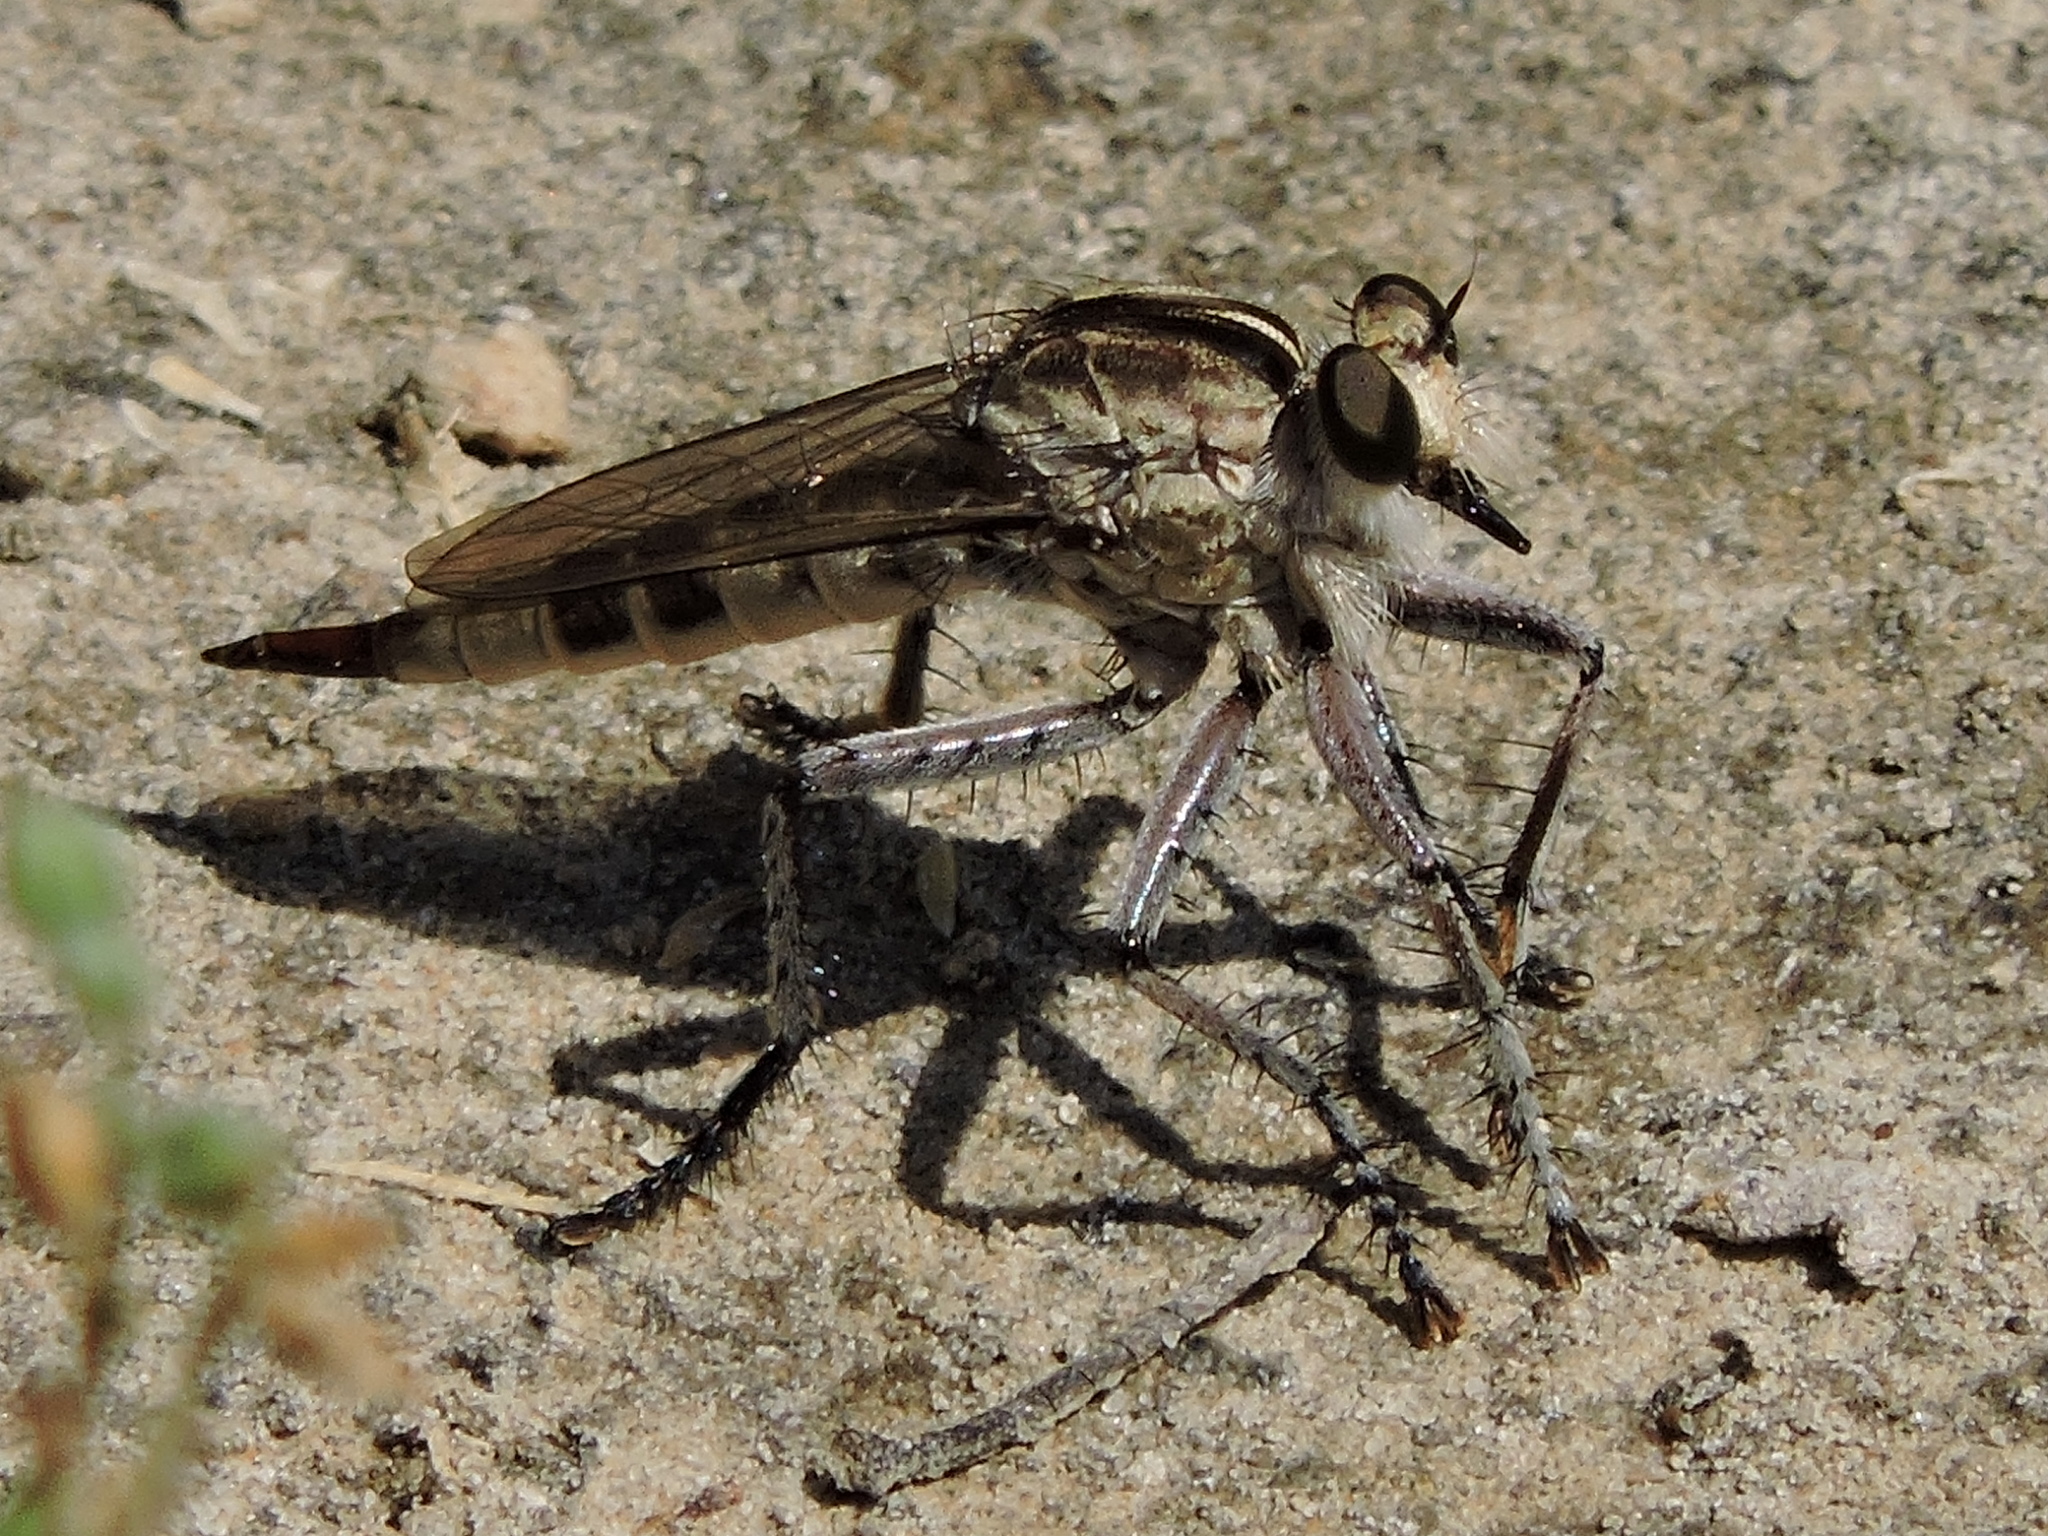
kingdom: Animalia
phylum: Arthropoda
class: Insecta
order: Diptera
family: Asilidae
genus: Triorla
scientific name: Triorla interrupta
